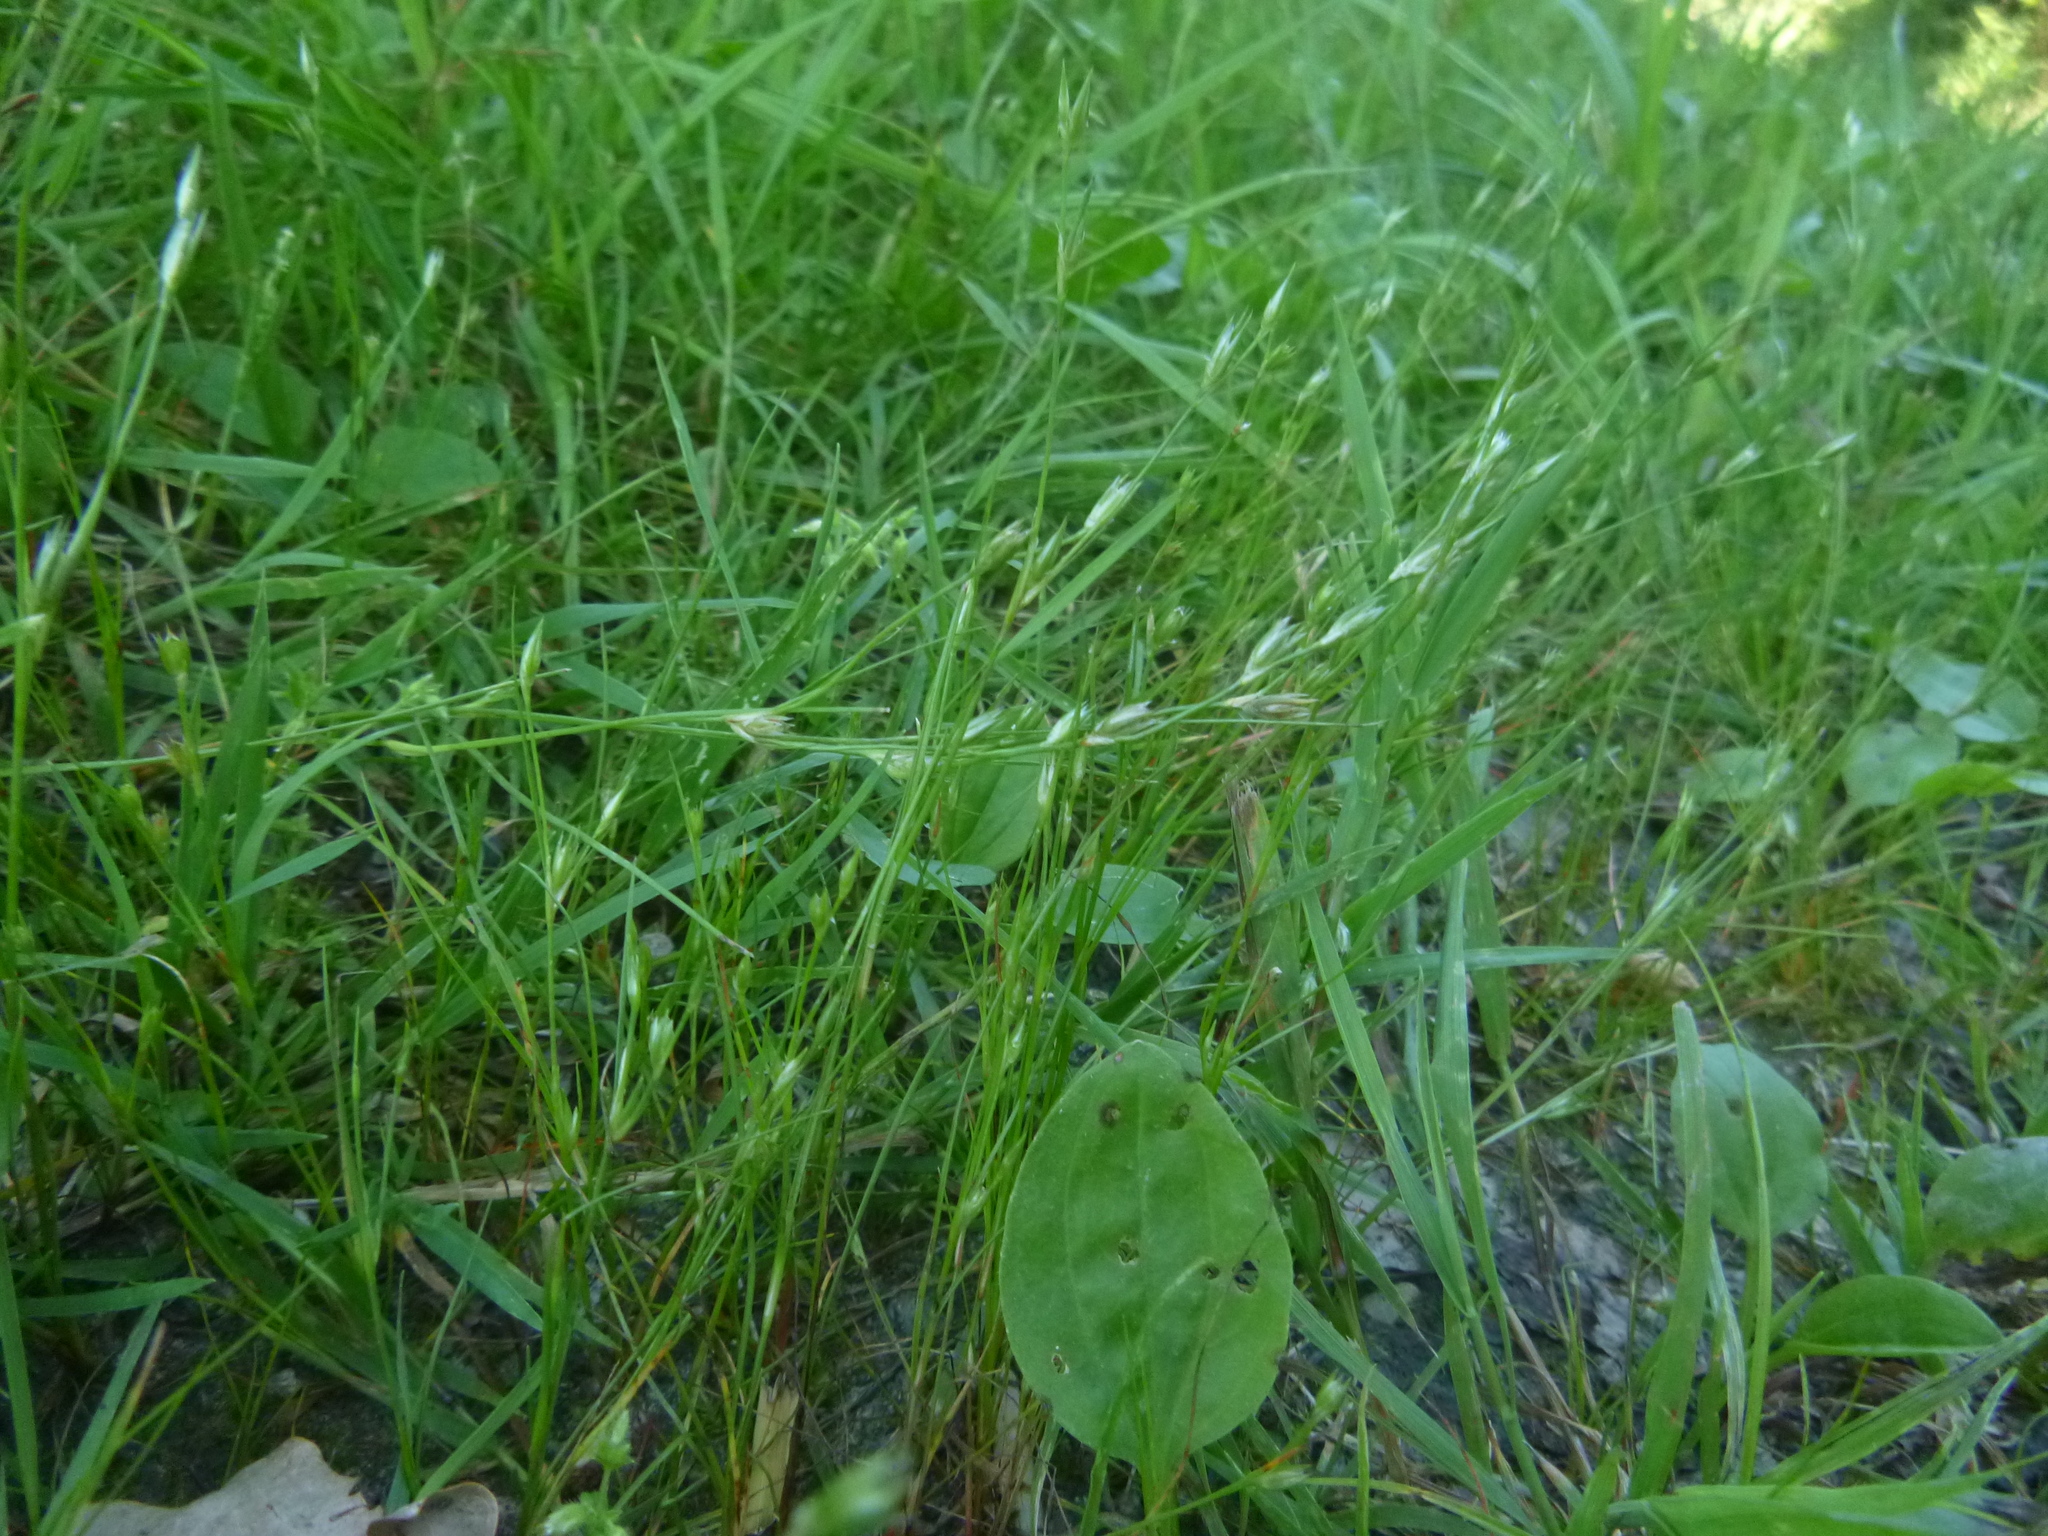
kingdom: Plantae
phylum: Tracheophyta
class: Liliopsida
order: Poales
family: Juncaceae
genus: Juncus
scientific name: Juncus bufonius
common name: Toad rush
